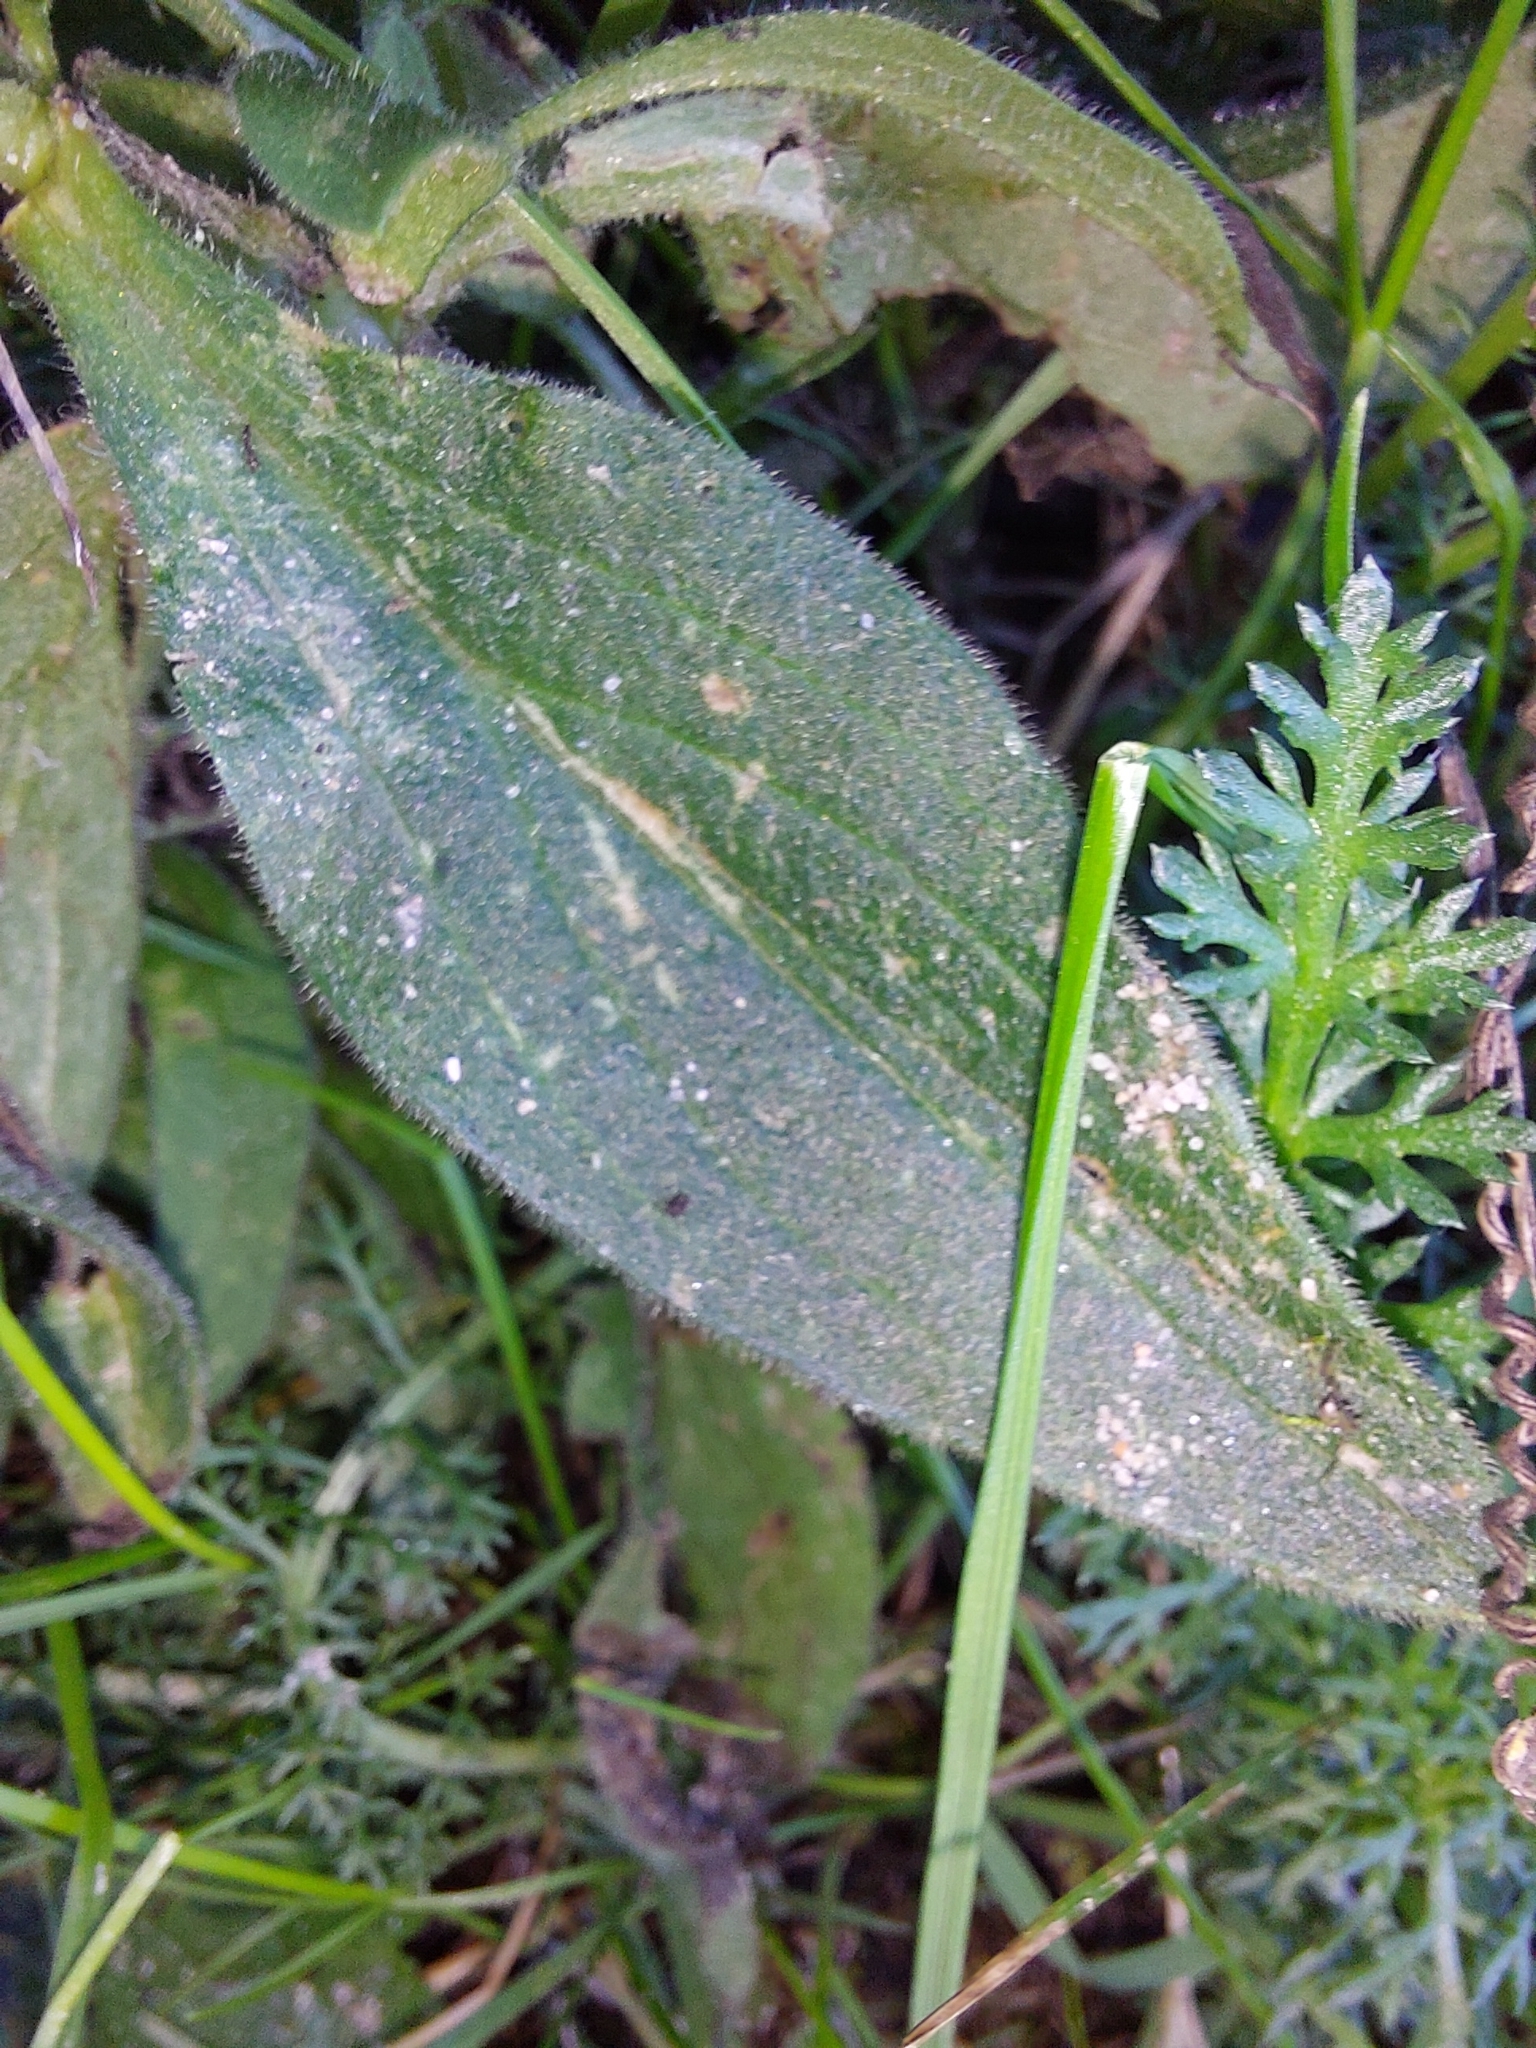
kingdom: Plantae
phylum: Tracheophyta
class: Magnoliopsida
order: Caryophyllales
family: Caryophyllaceae
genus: Silene
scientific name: Silene latifolia
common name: White campion
